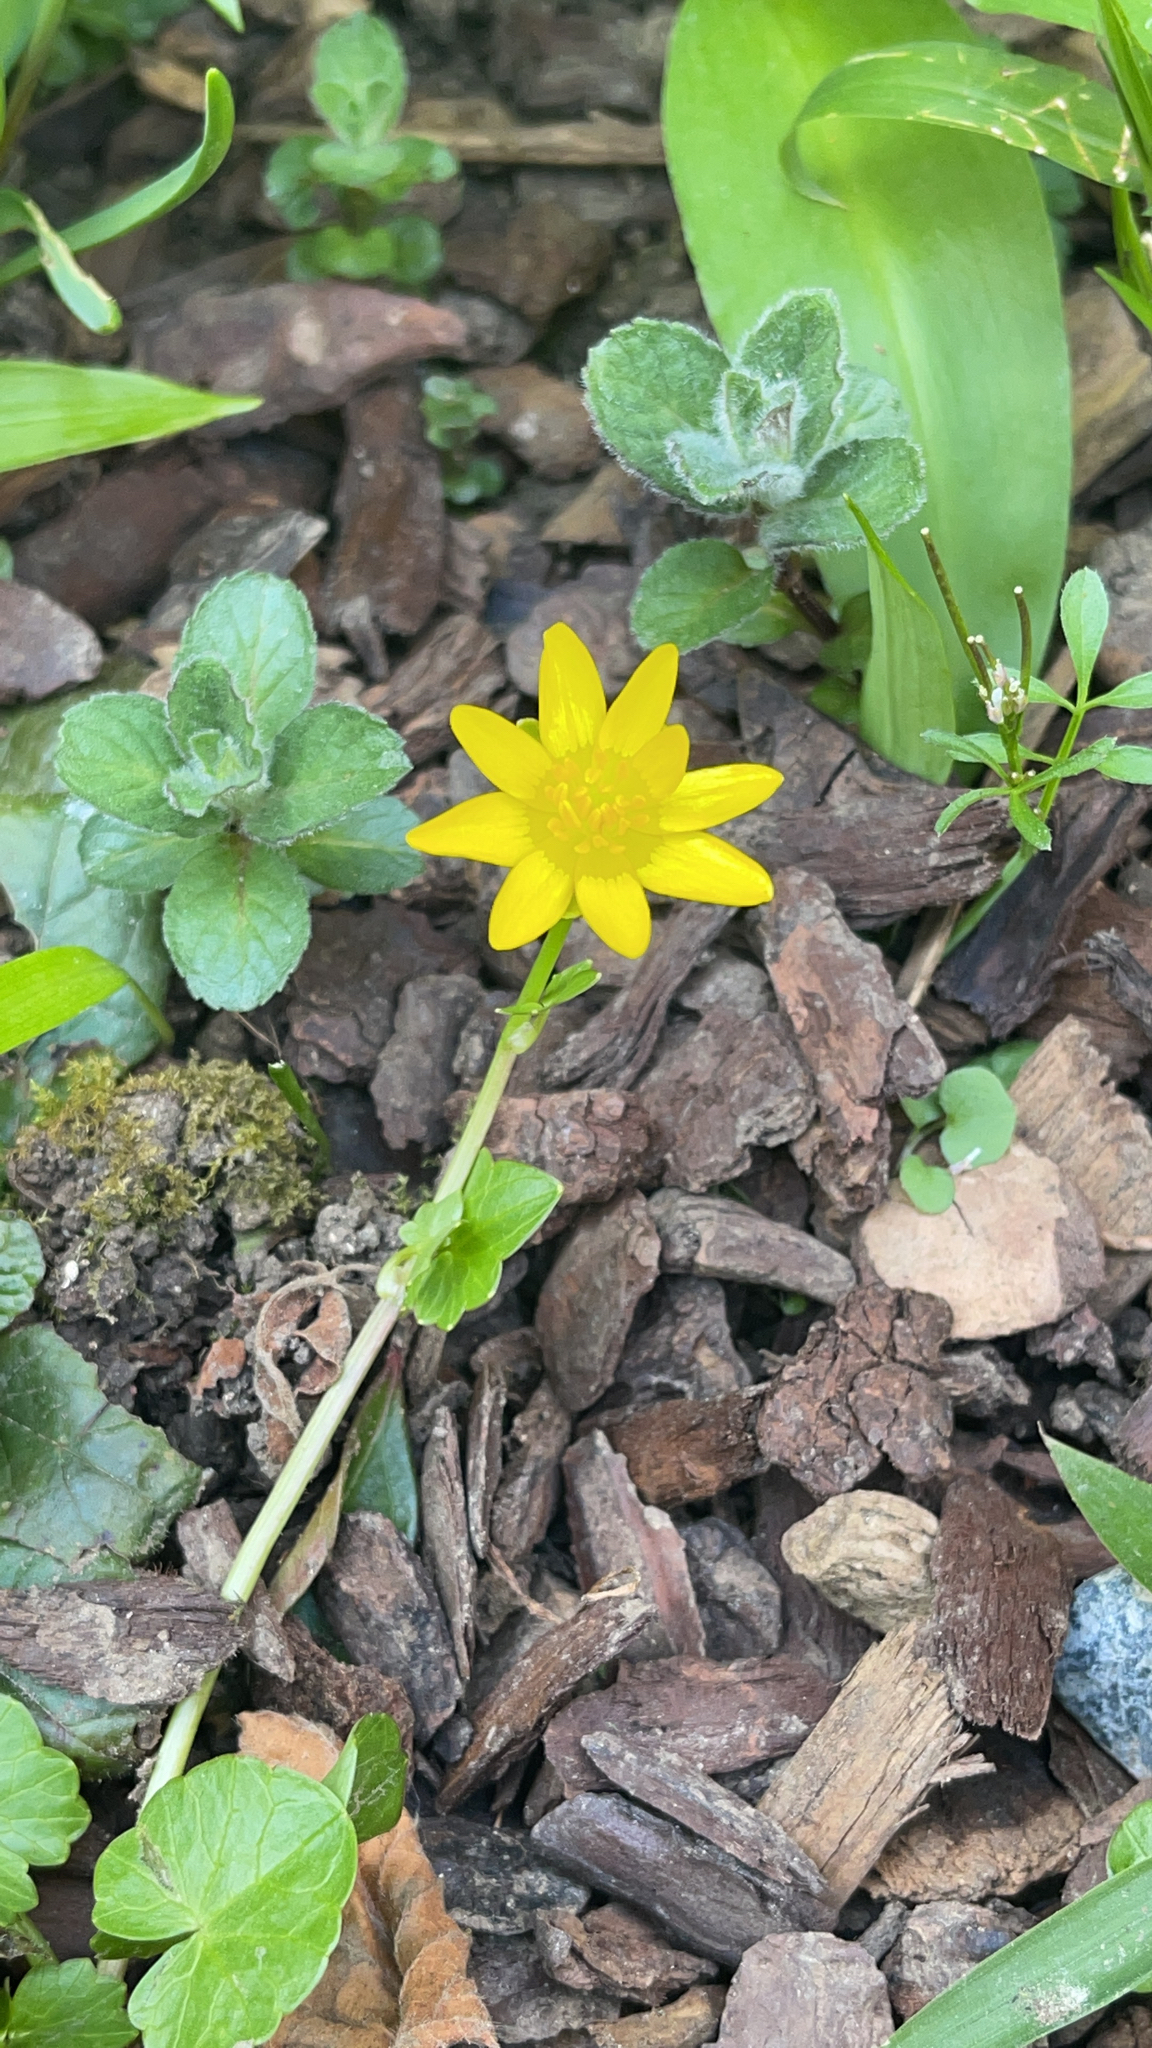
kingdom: Plantae
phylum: Tracheophyta
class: Magnoliopsida
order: Ranunculales
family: Ranunculaceae
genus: Ficaria
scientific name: Ficaria verna
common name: Lesser celandine
